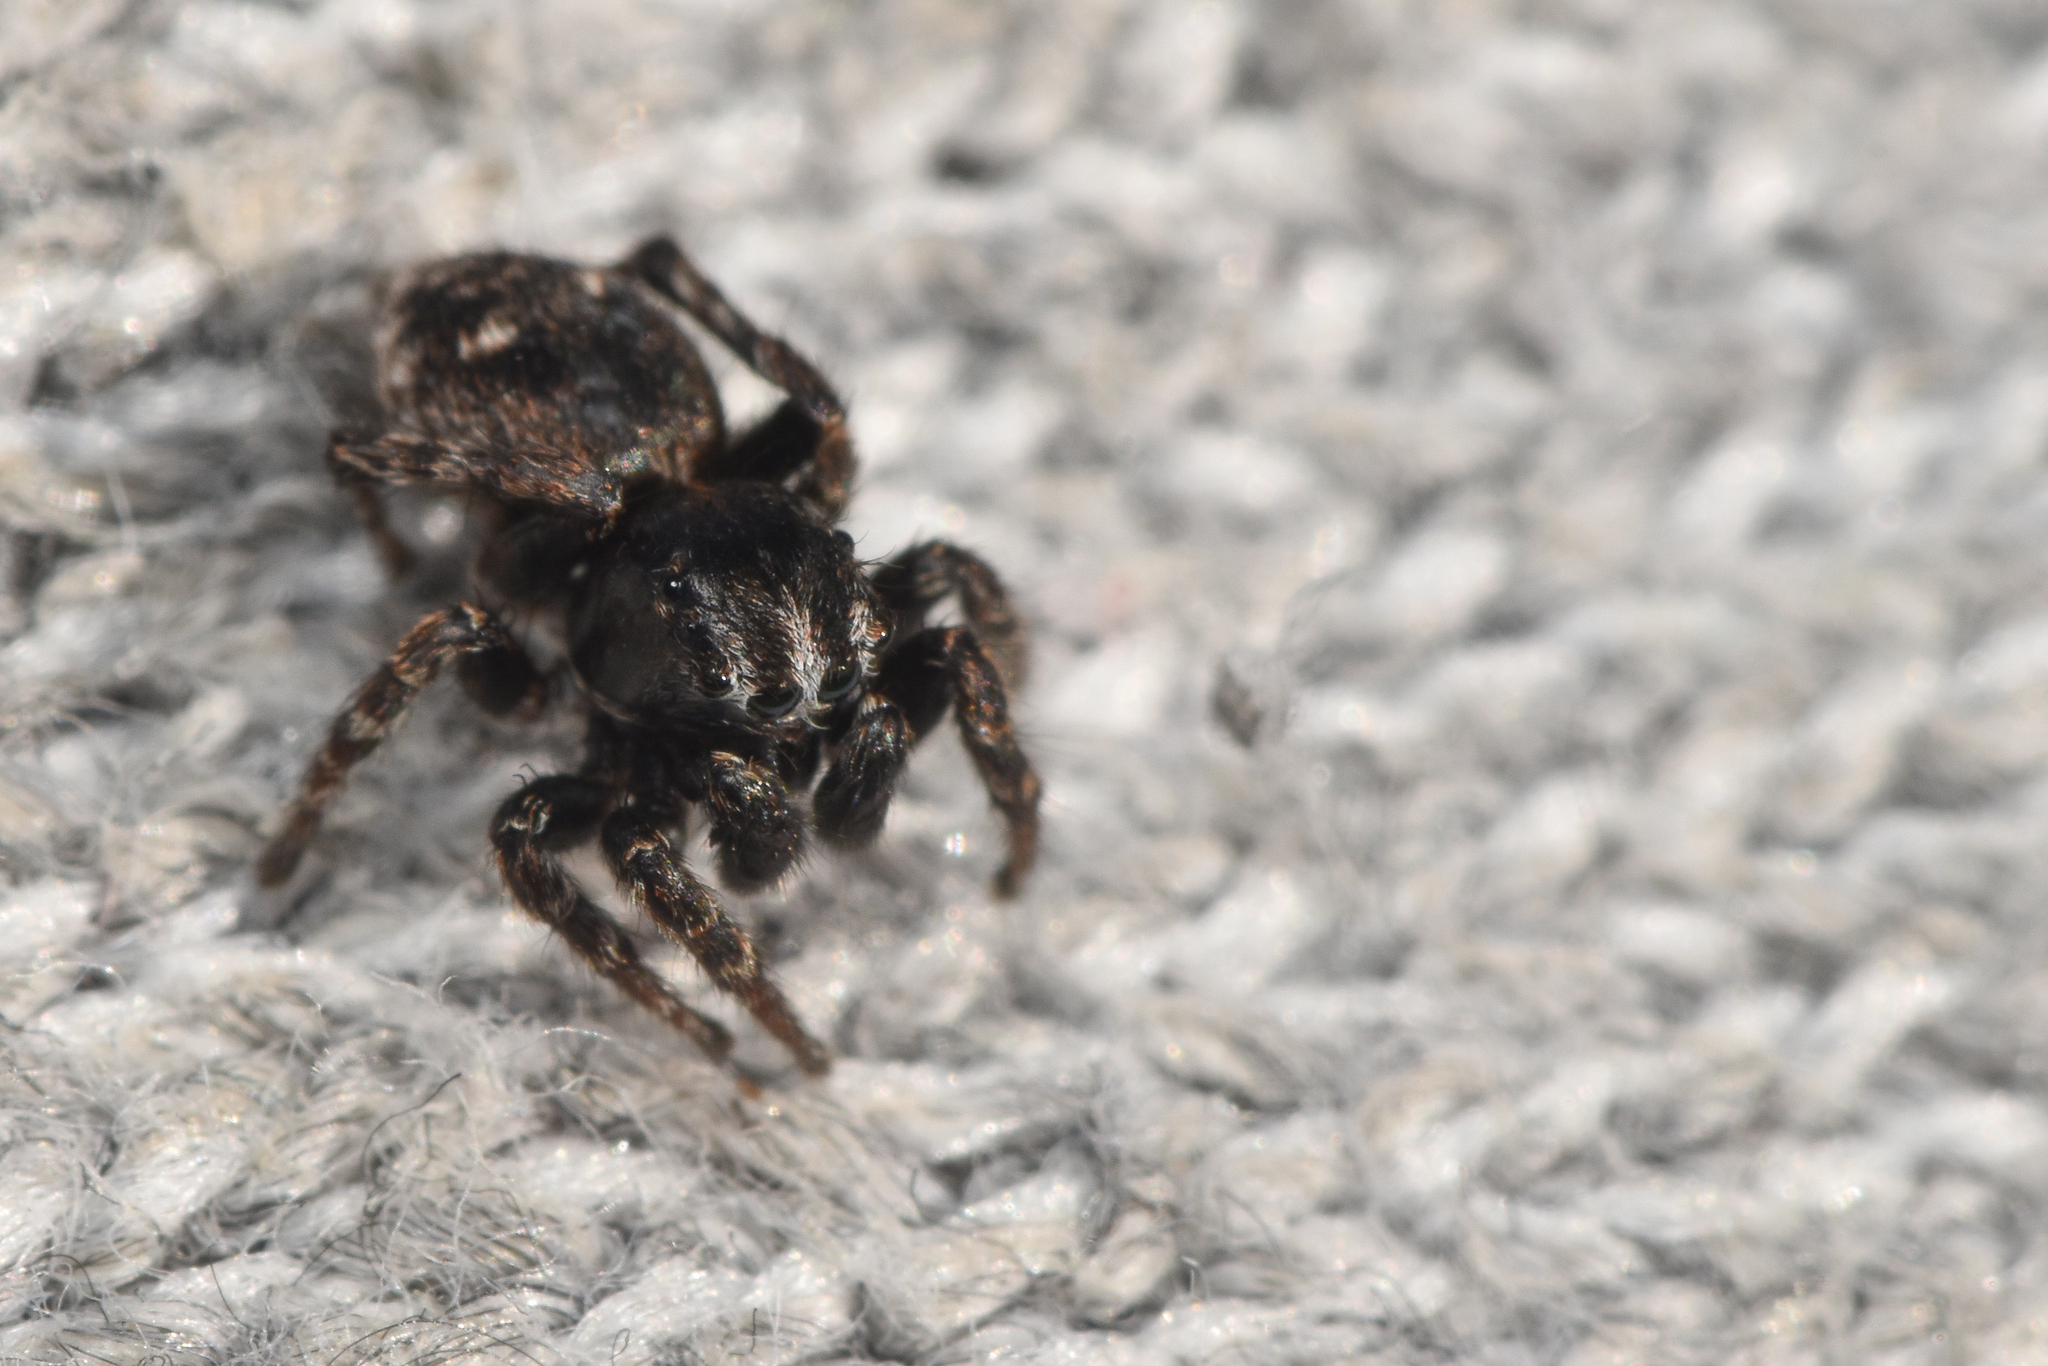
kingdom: Animalia
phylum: Arthropoda
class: Arachnida
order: Araneae
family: Salticidae
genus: Sittisax
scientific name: Sittisax ranieri
